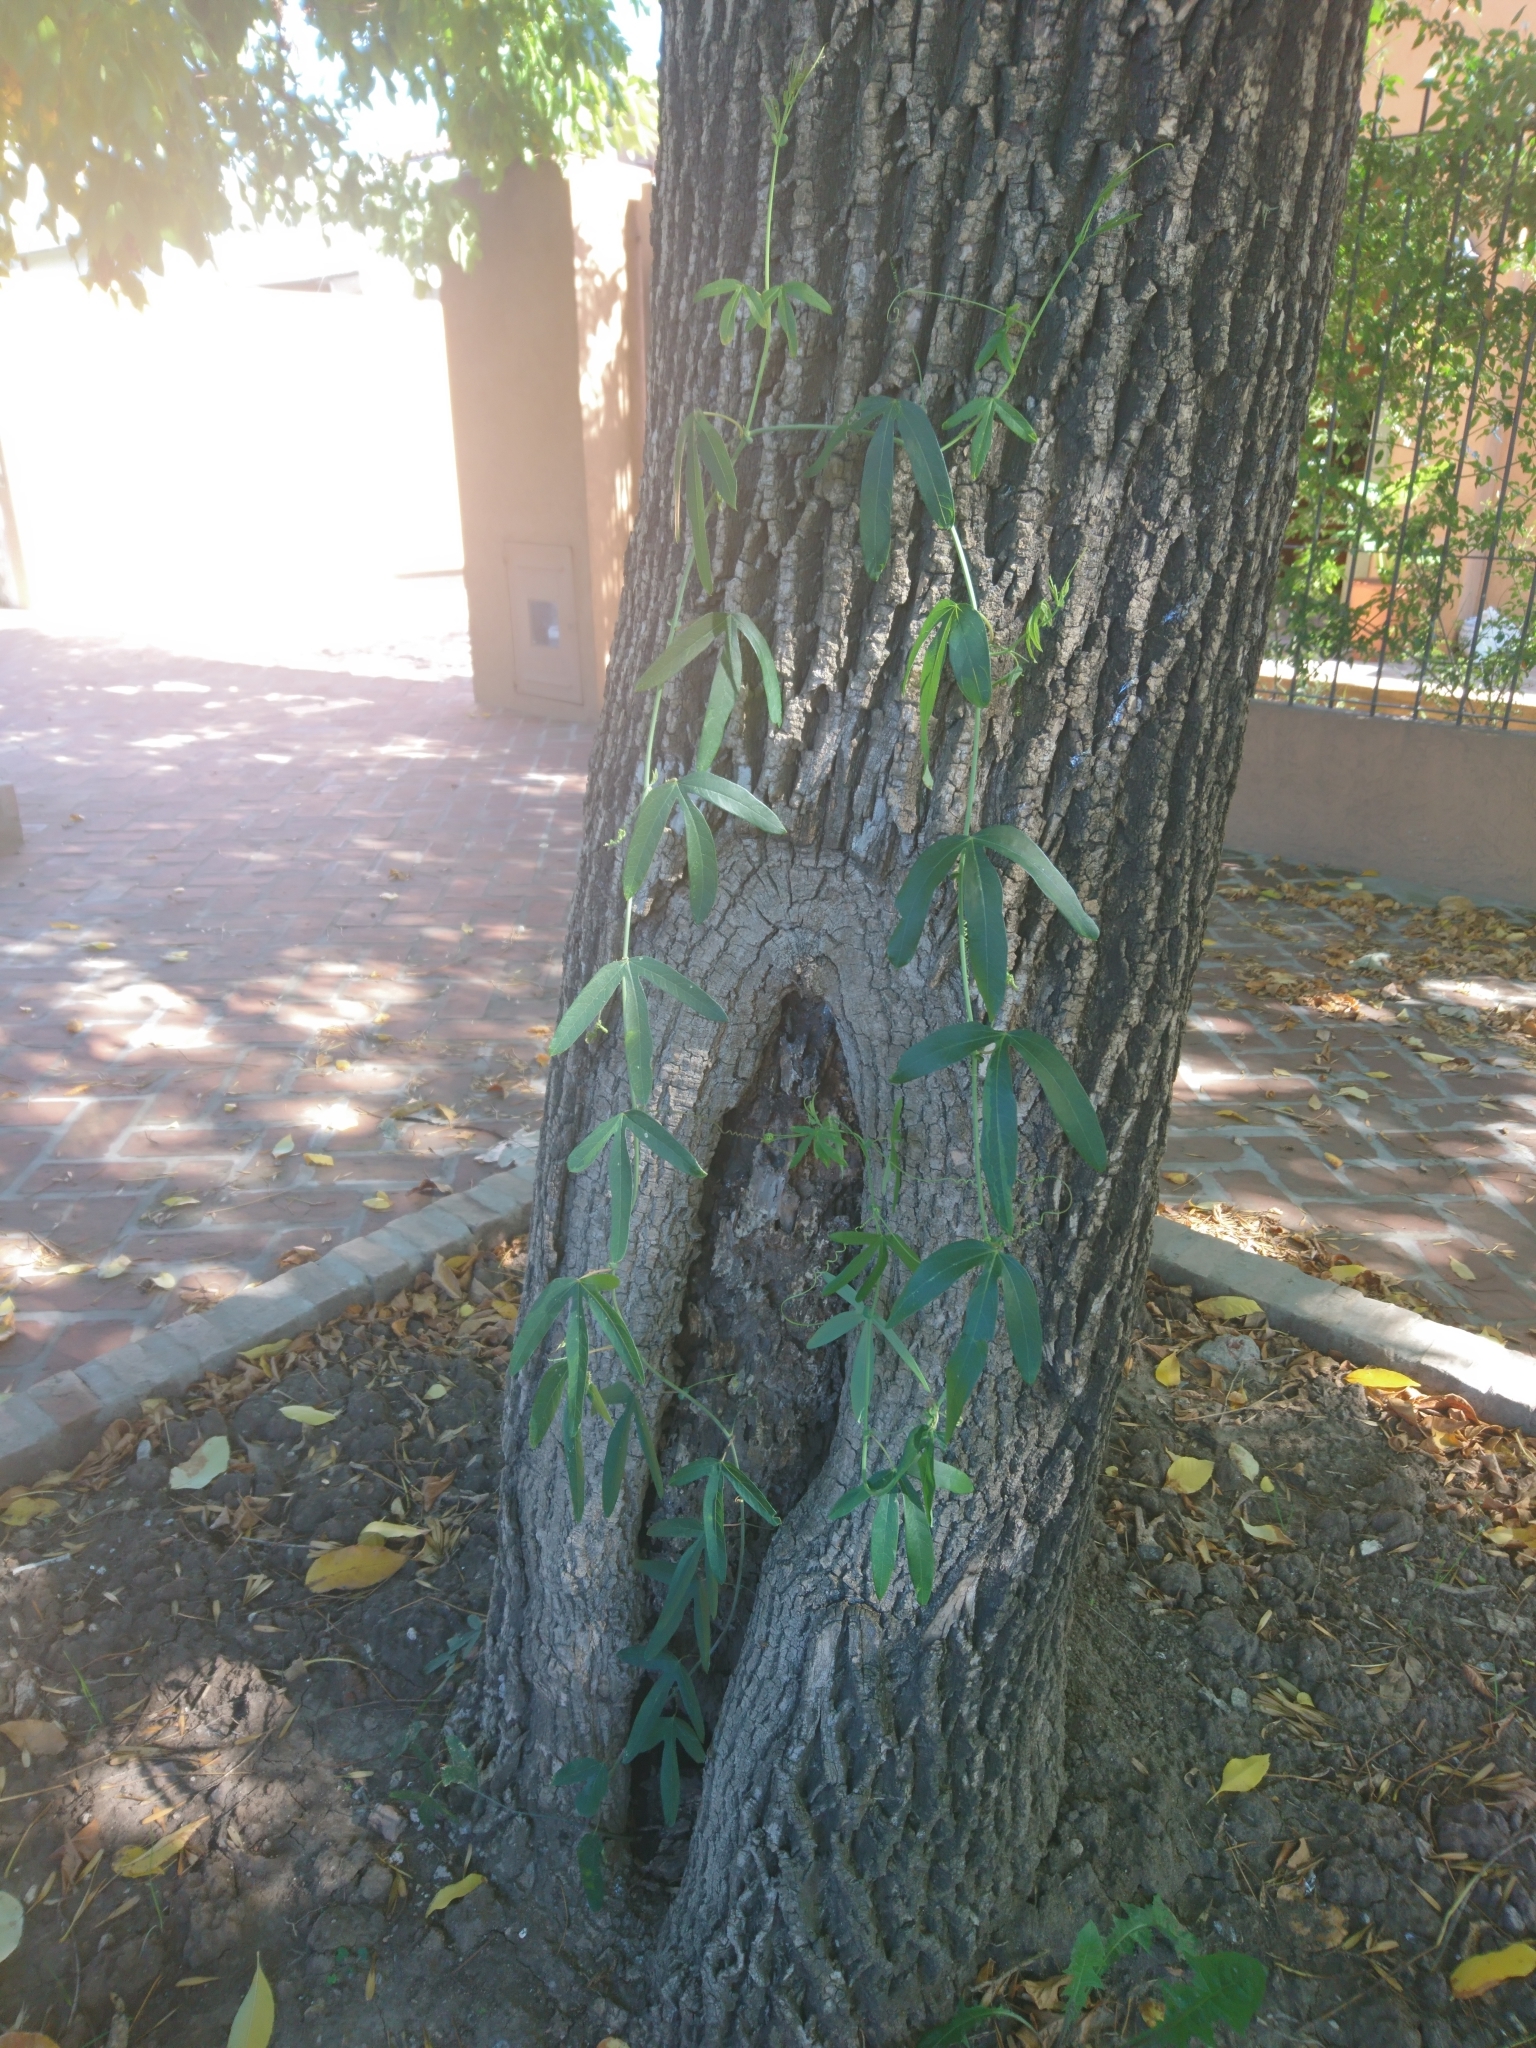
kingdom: Plantae
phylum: Tracheophyta
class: Magnoliopsida
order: Malpighiales
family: Passifloraceae
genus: Passiflora
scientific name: Passiflora caerulea
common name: Blue passionflower
